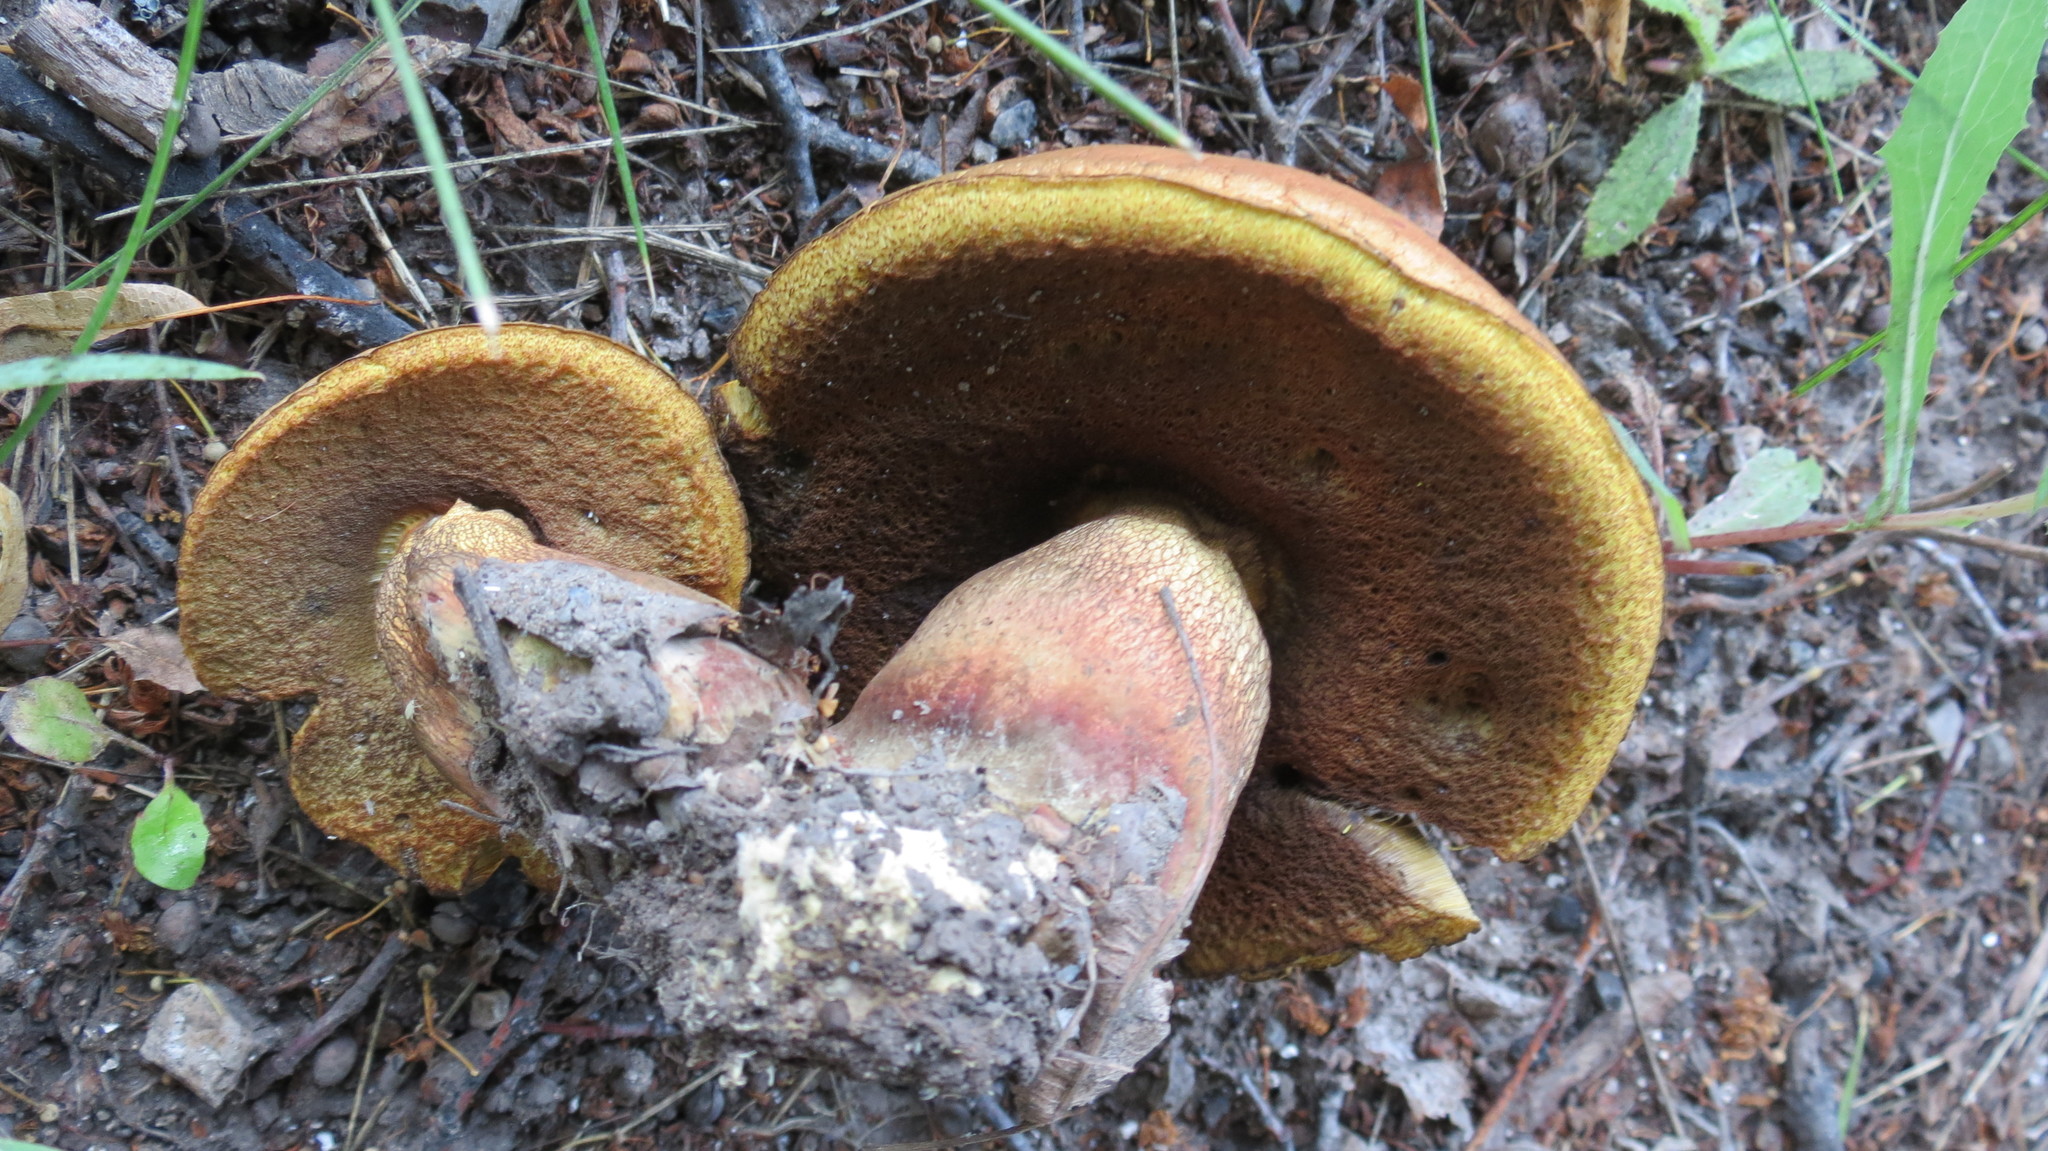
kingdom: Fungi
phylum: Basidiomycota
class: Agaricomycetes
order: Boletales
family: Boletaceae
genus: Suillellus
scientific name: Suillellus luridus
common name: Lurid bolete
